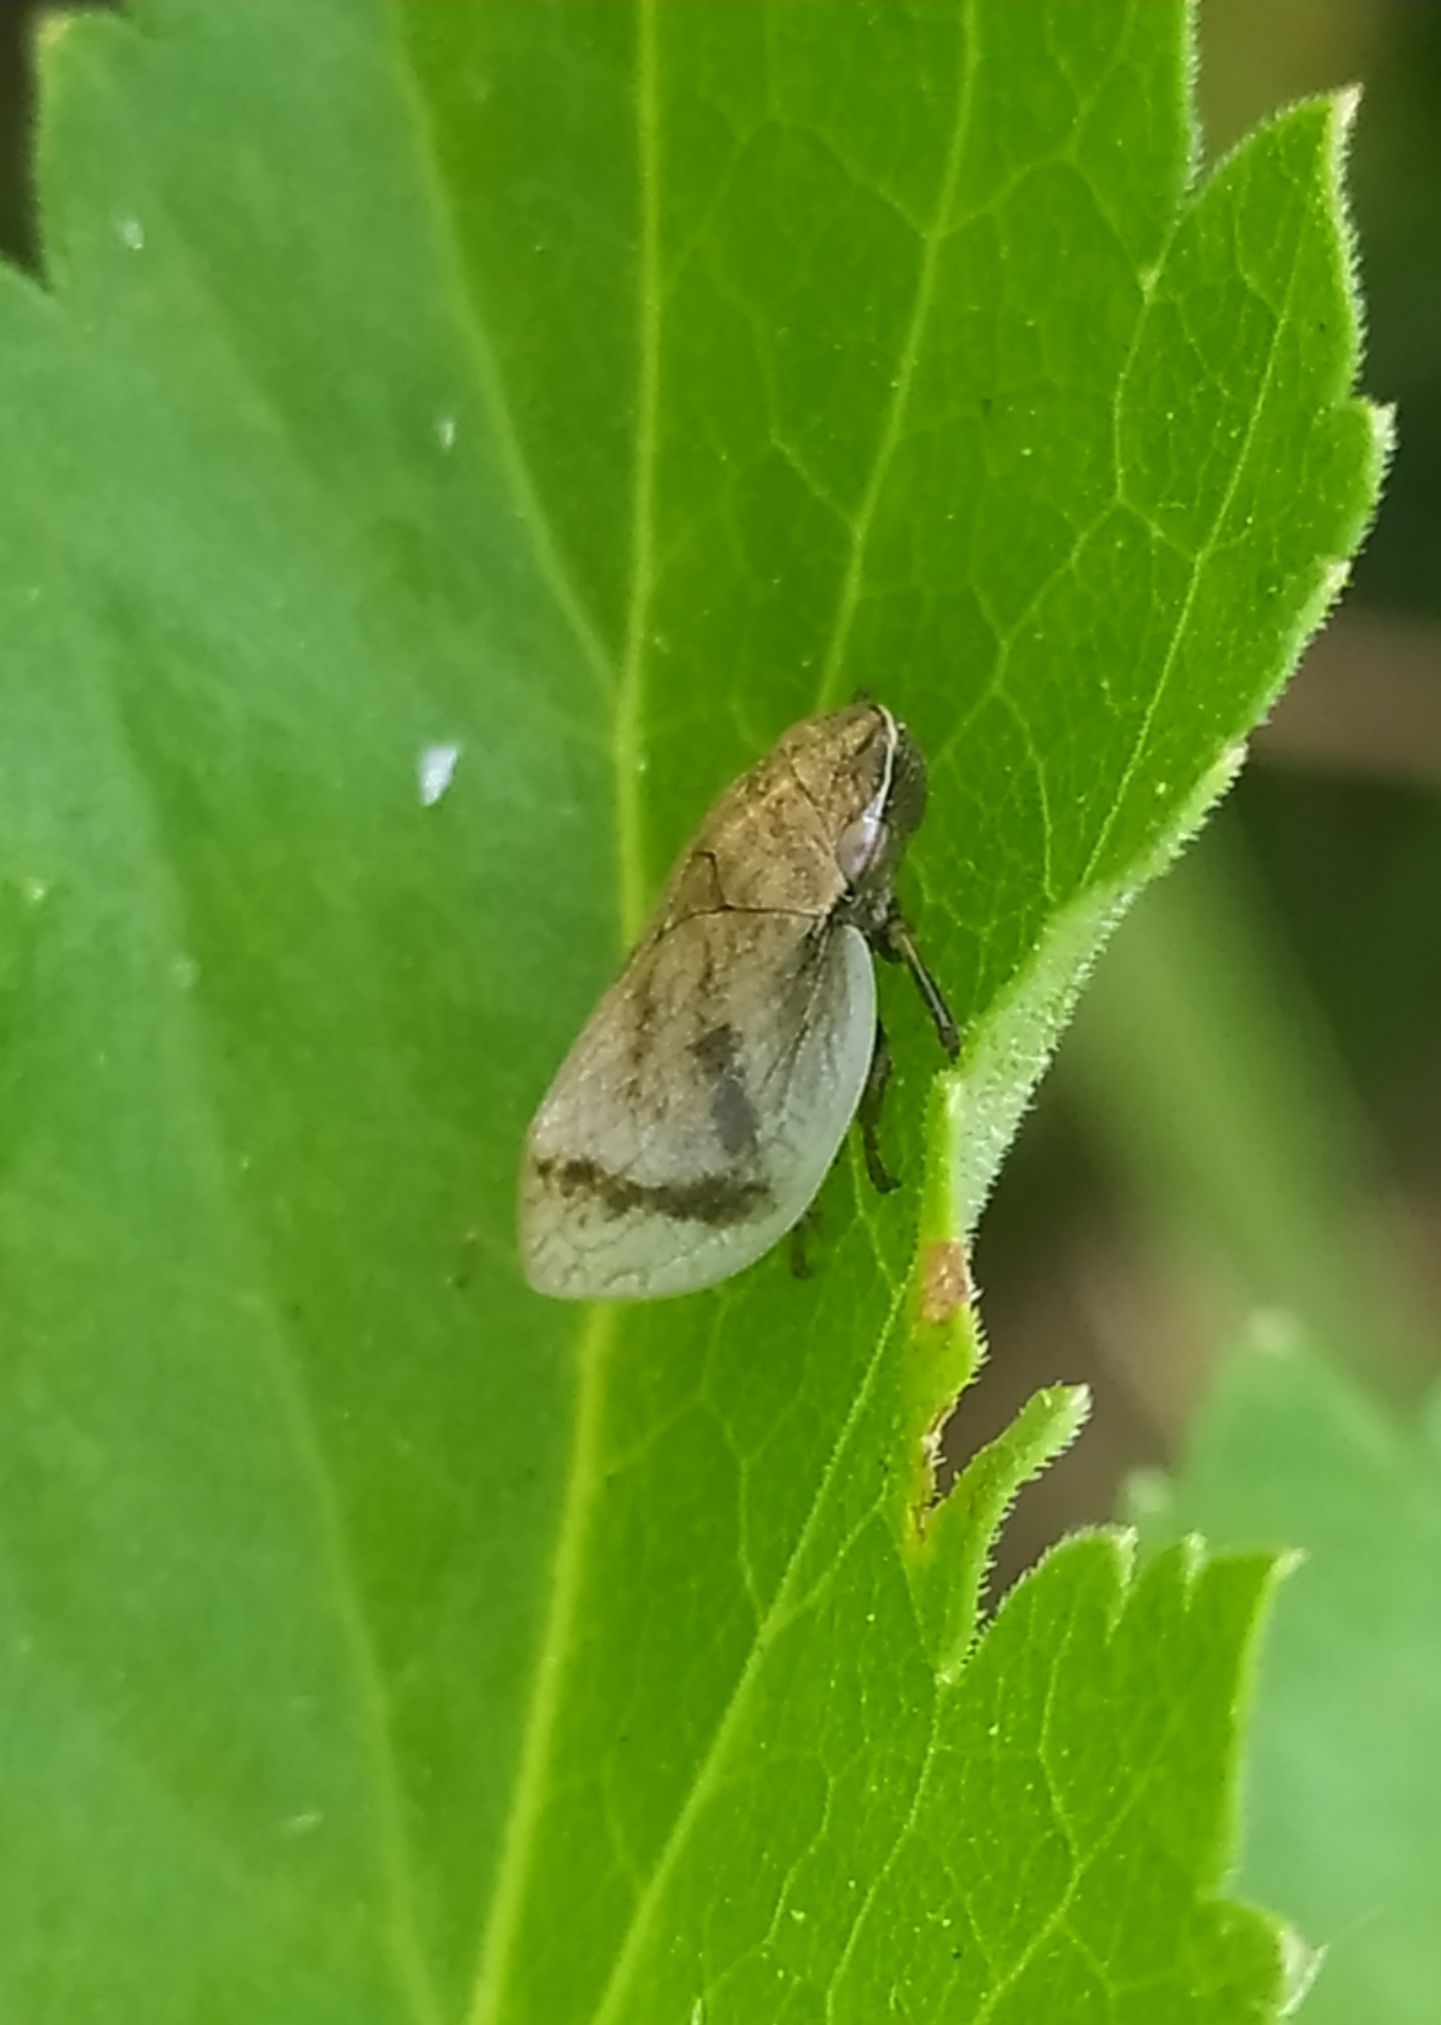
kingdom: Animalia
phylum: Arthropoda
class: Insecta
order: Hemiptera
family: Aphrophoridae
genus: Lepyronia
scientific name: Lepyronia coleoptrata
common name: Leafhopper
